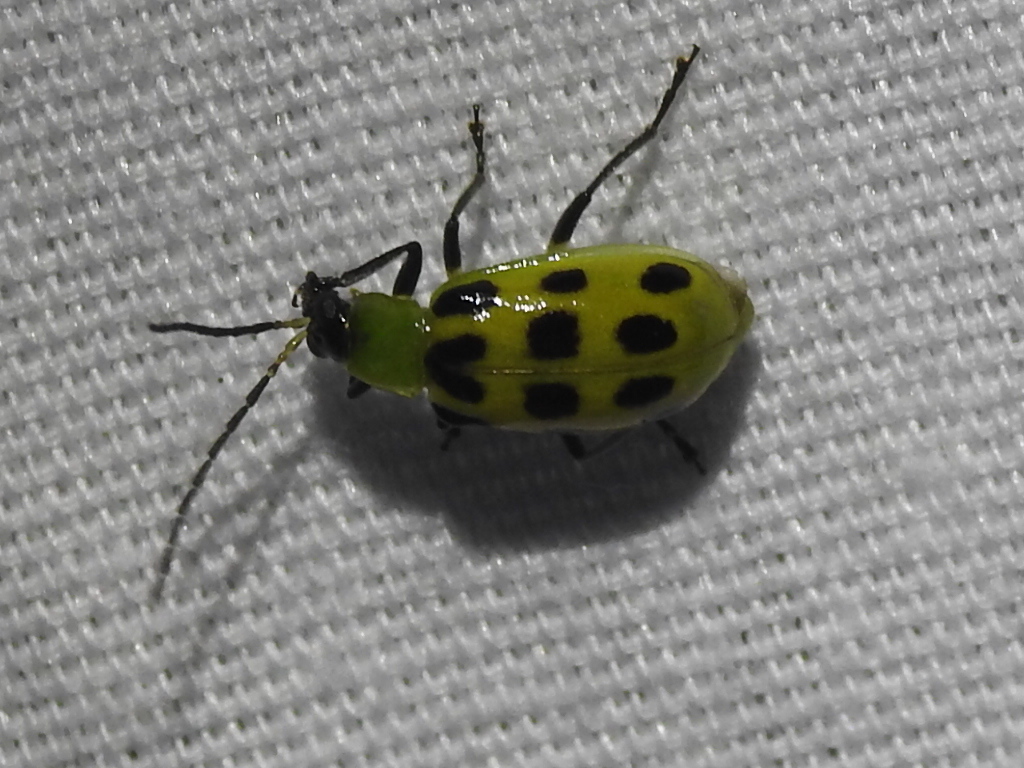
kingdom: Animalia
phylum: Arthropoda
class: Insecta
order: Coleoptera
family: Chrysomelidae
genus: Diabrotica
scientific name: Diabrotica undecimpunctata
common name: Spotted cucumber beetle
